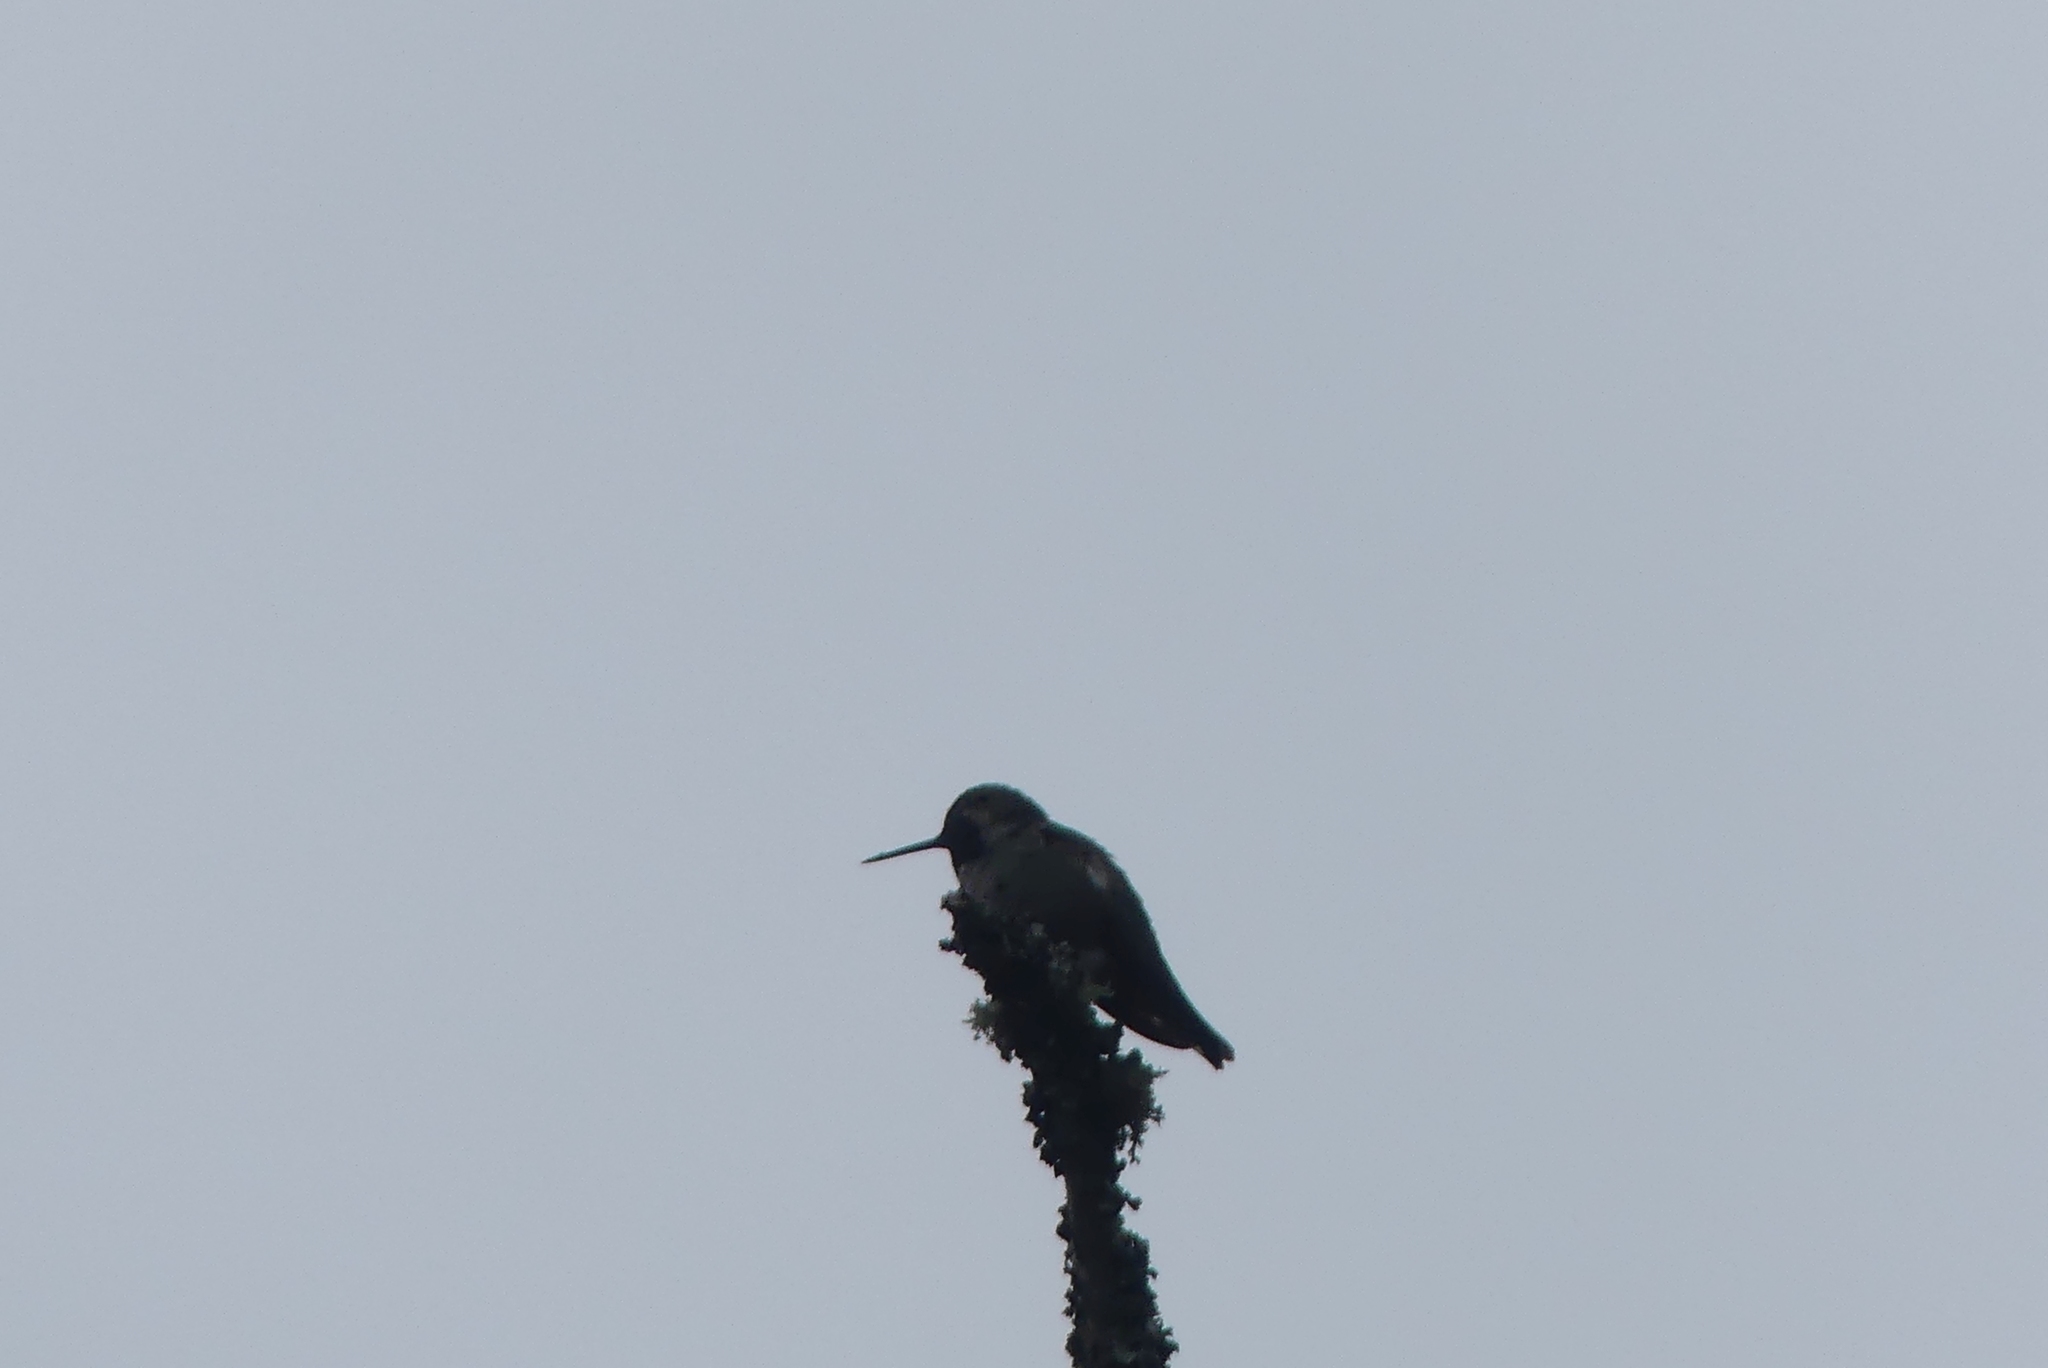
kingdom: Animalia
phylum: Chordata
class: Aves
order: Apodiformes
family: Trochilidae
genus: Calypte
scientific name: Calypte anna
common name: Anna's hummingbird
